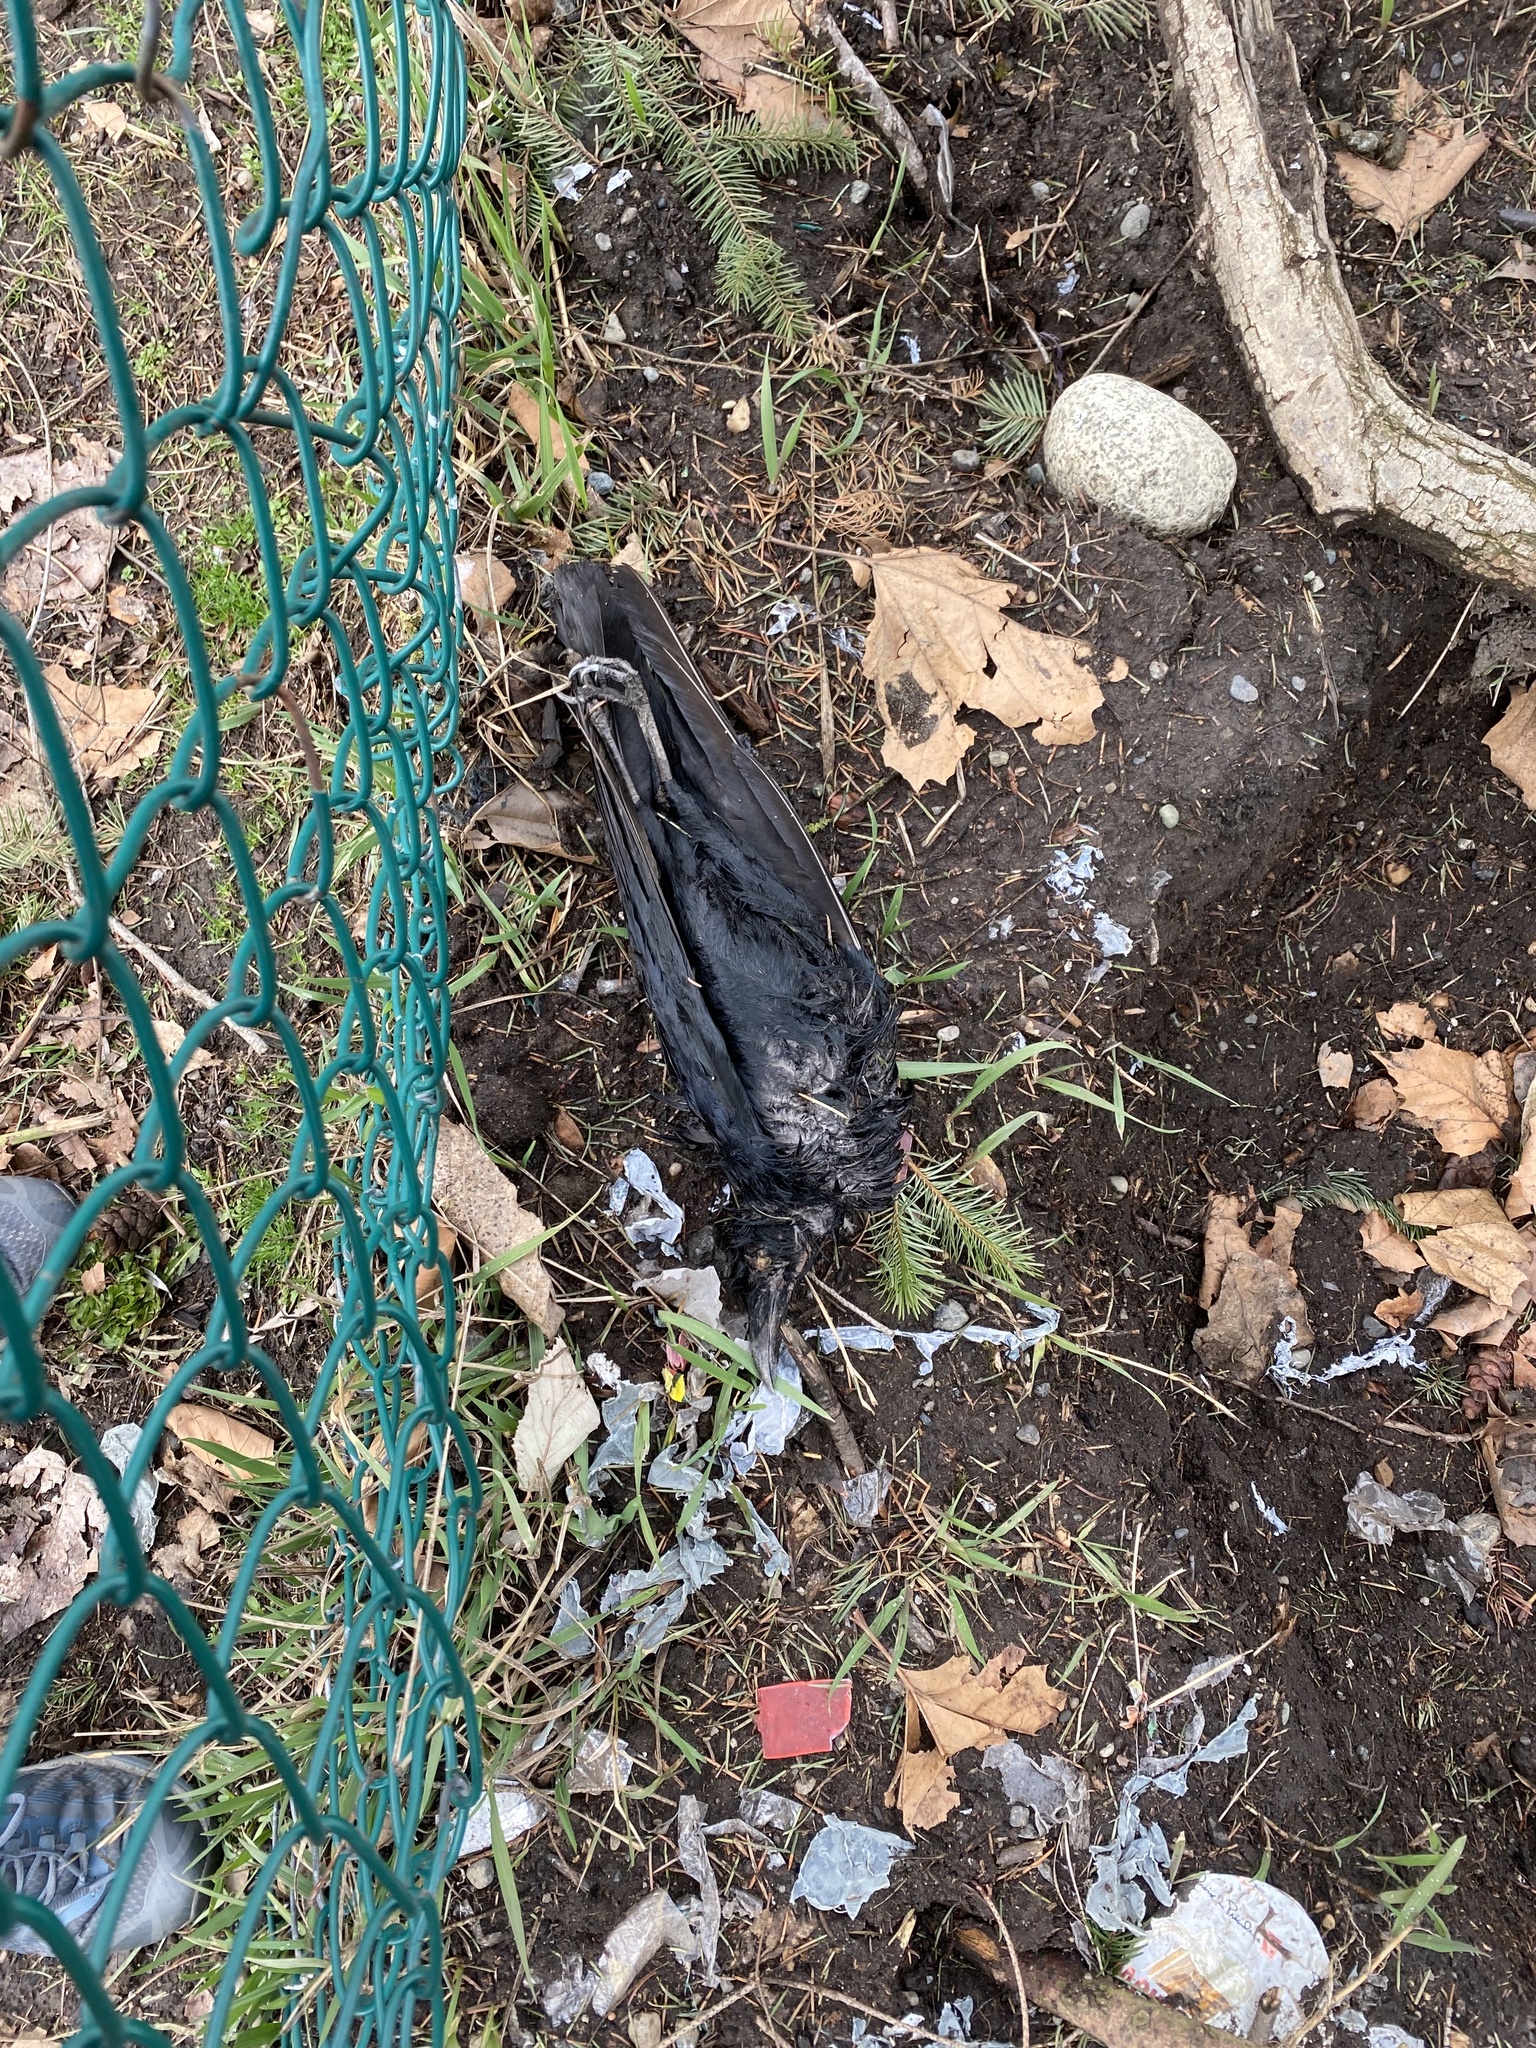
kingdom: Animalia
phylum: Chordata
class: Aves
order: Passeriformes
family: Corvidae
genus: Corvus
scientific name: Corvus brachyrhynchos
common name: American crow
